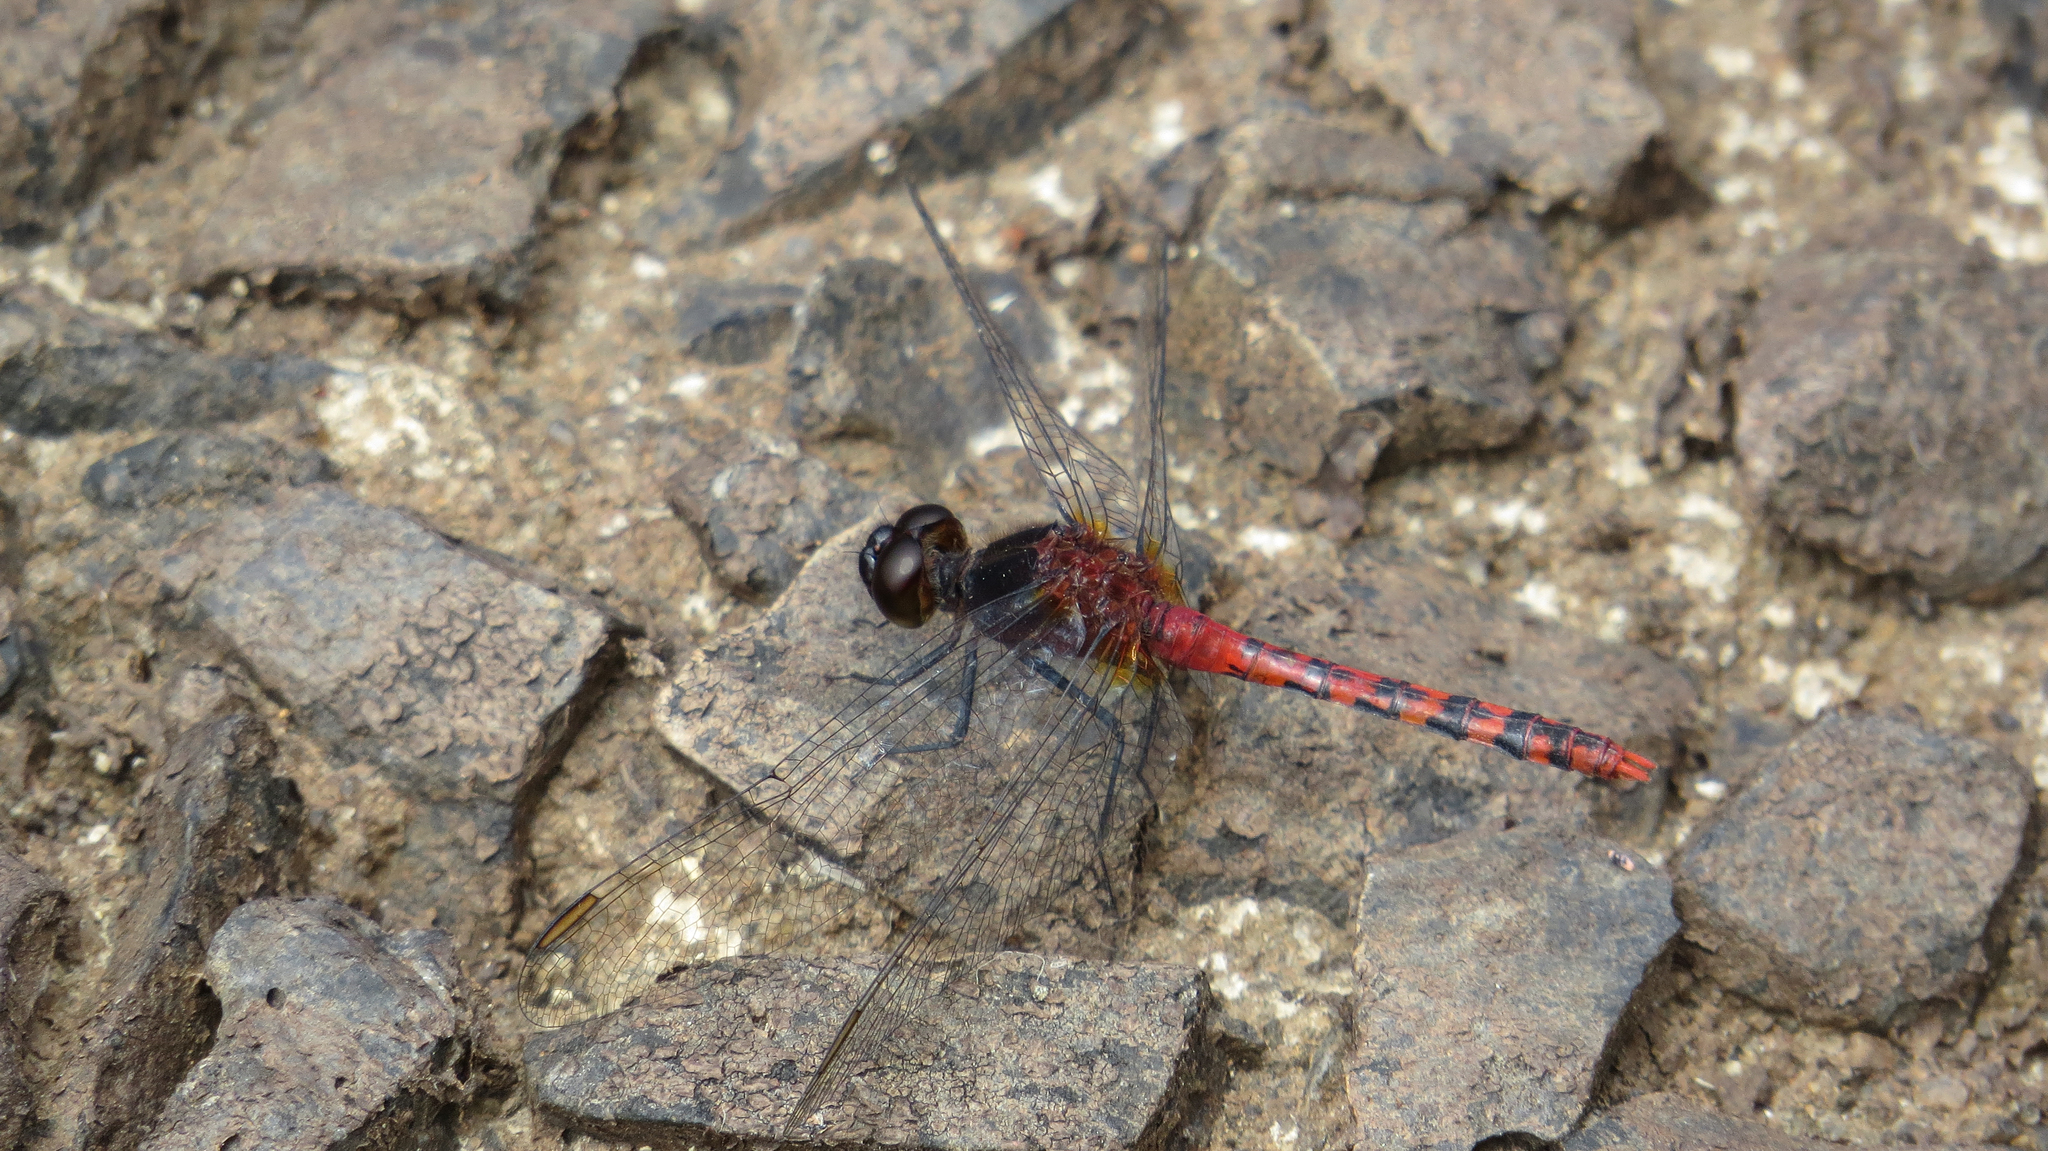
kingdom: Animalia
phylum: Arthropoda
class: Insecta
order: Odonata
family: Libellulidae
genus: Diplacodes
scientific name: Diplacodes melanopsis
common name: Black-faced percher
